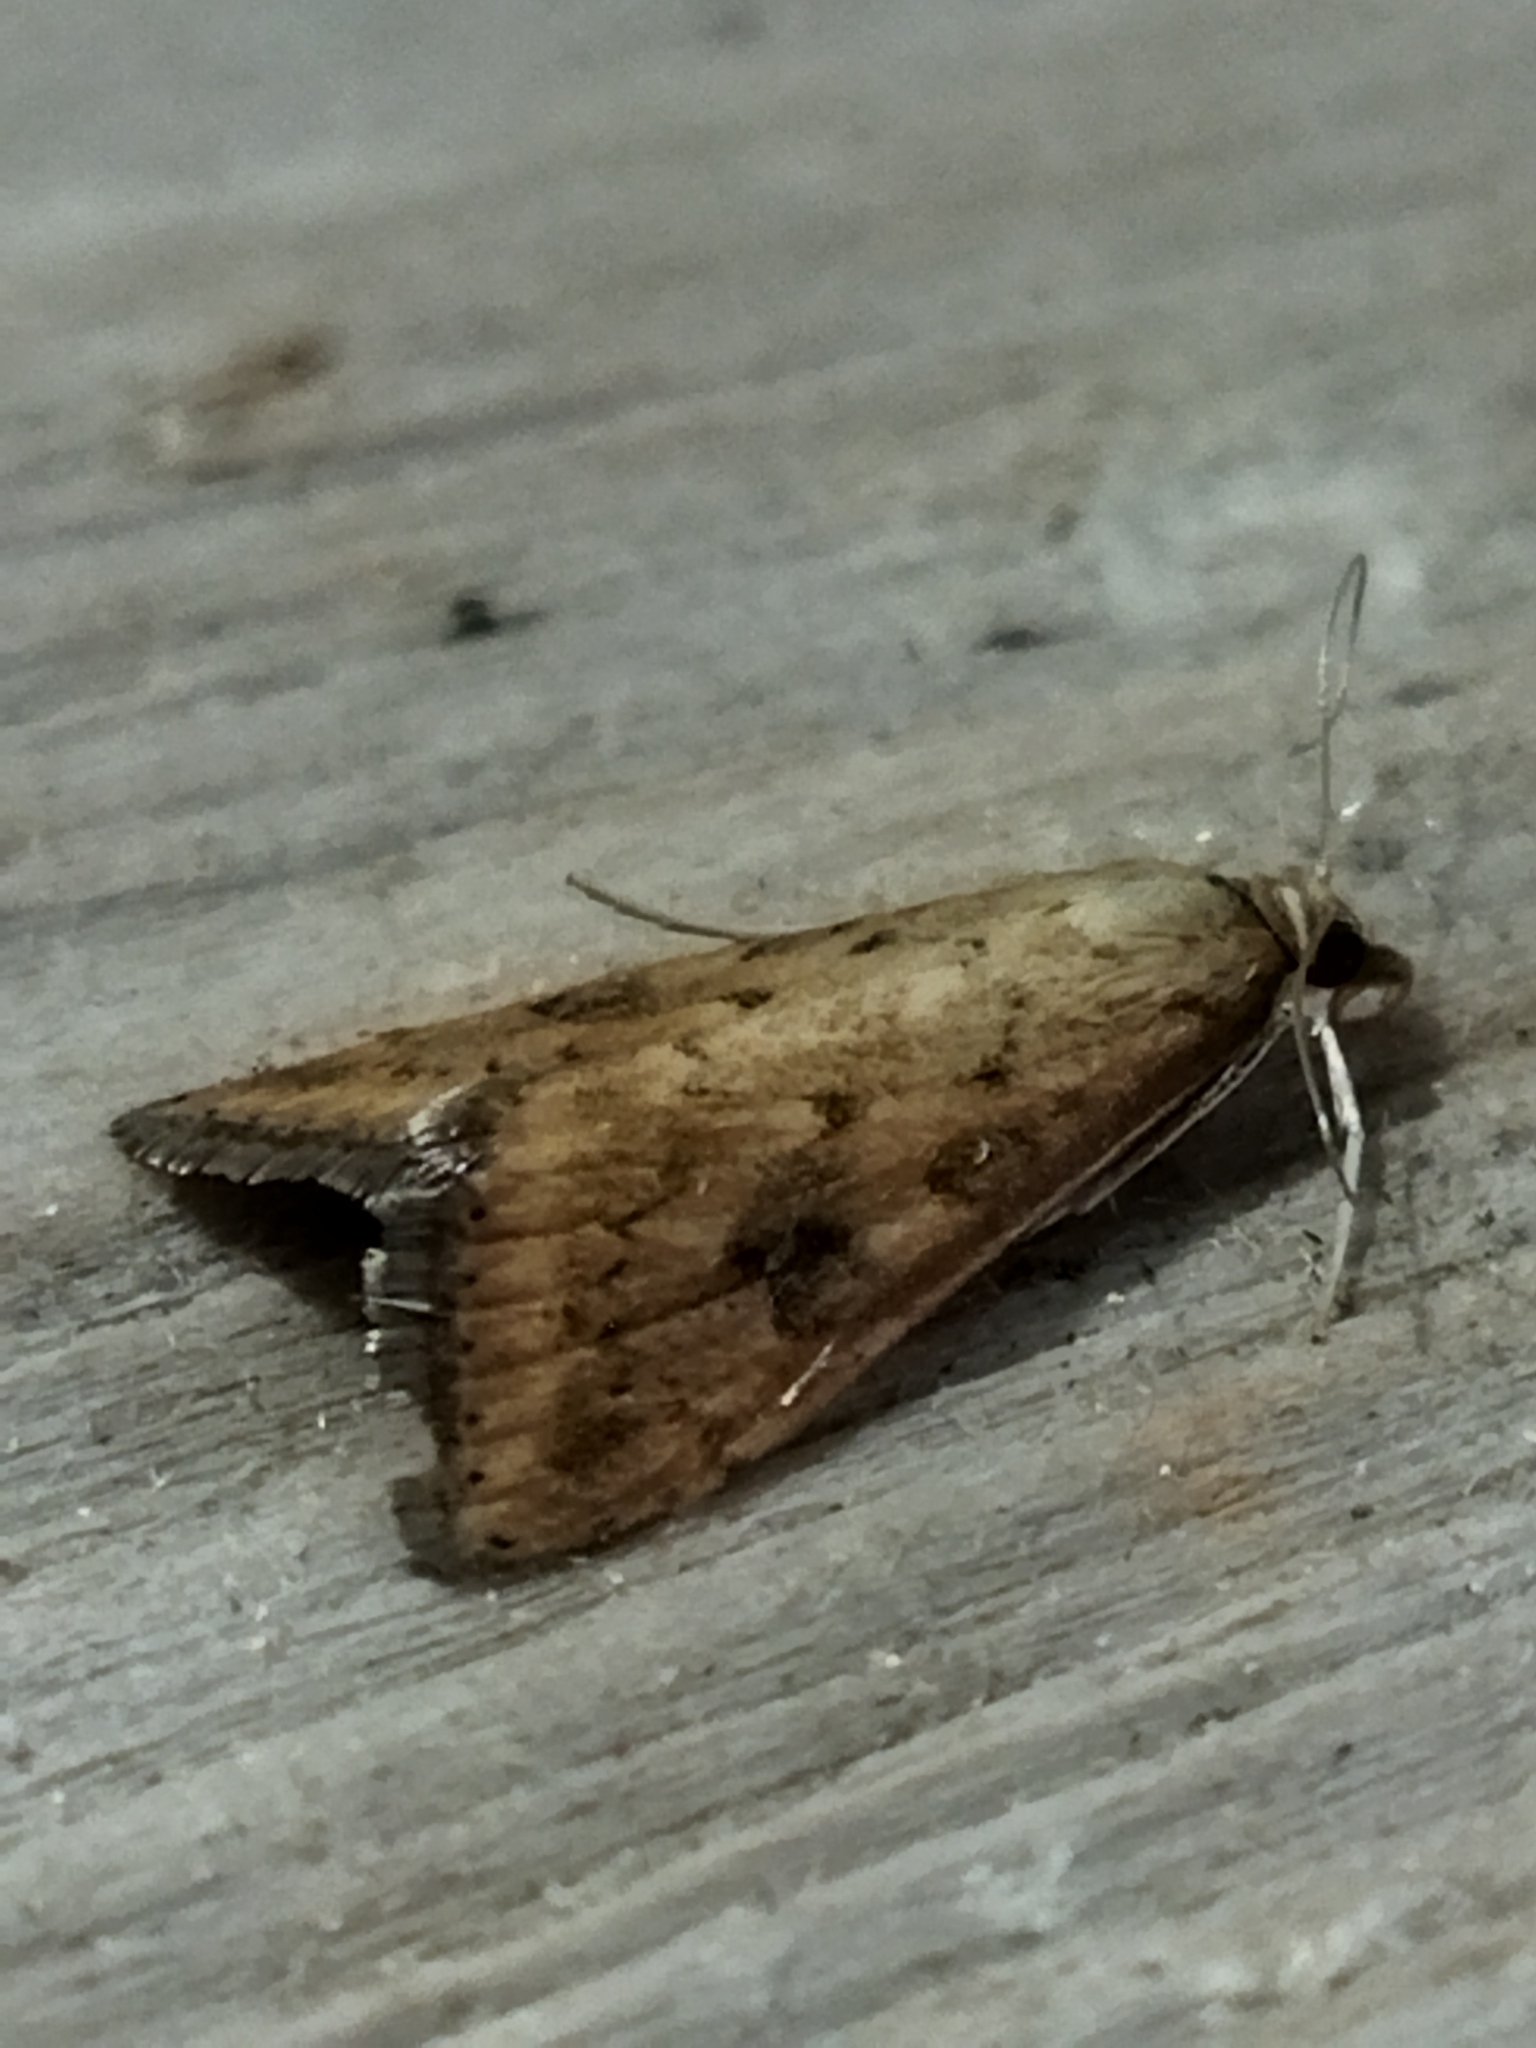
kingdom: Animalia
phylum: Arthropoda
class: Insecta
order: Lepidoptera
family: Crambidae
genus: Udea
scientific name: Udea ferrugalis
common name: Rusty dot
